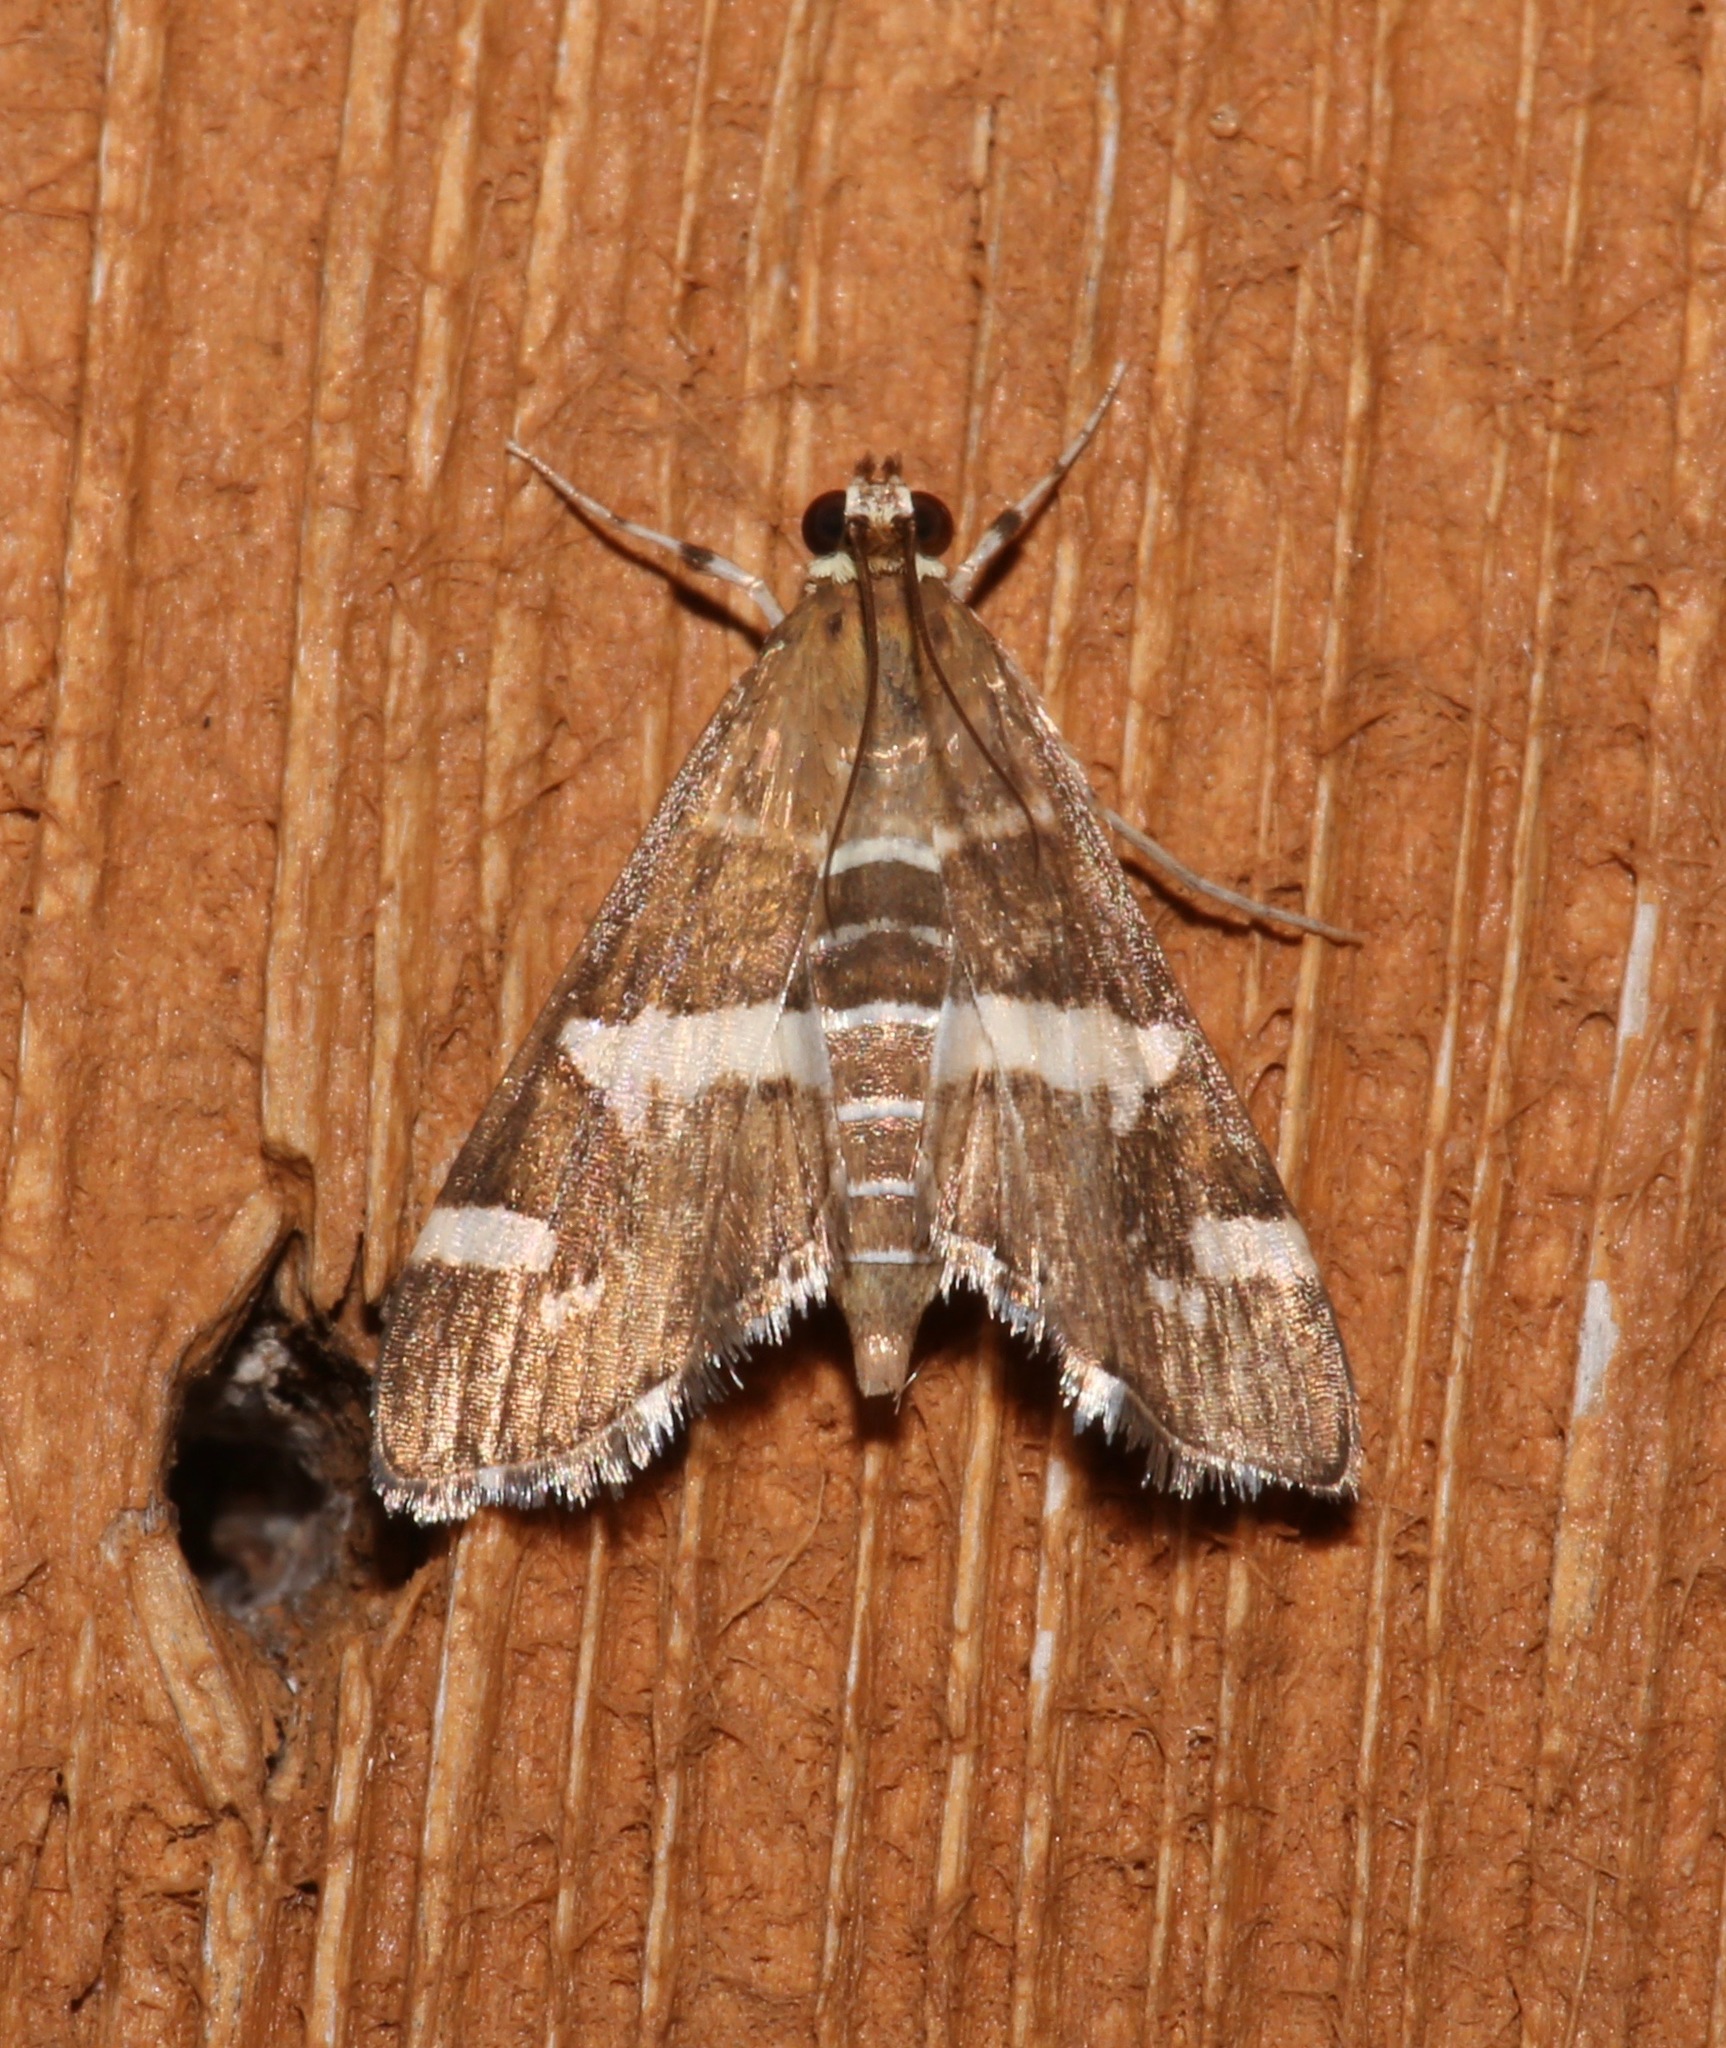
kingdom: Animalia
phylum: Arthropoda
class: Insecta
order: Lepidoptera
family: Crambidae
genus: Spoladea
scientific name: Spoladea recurvalis
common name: Beet webworm moth
